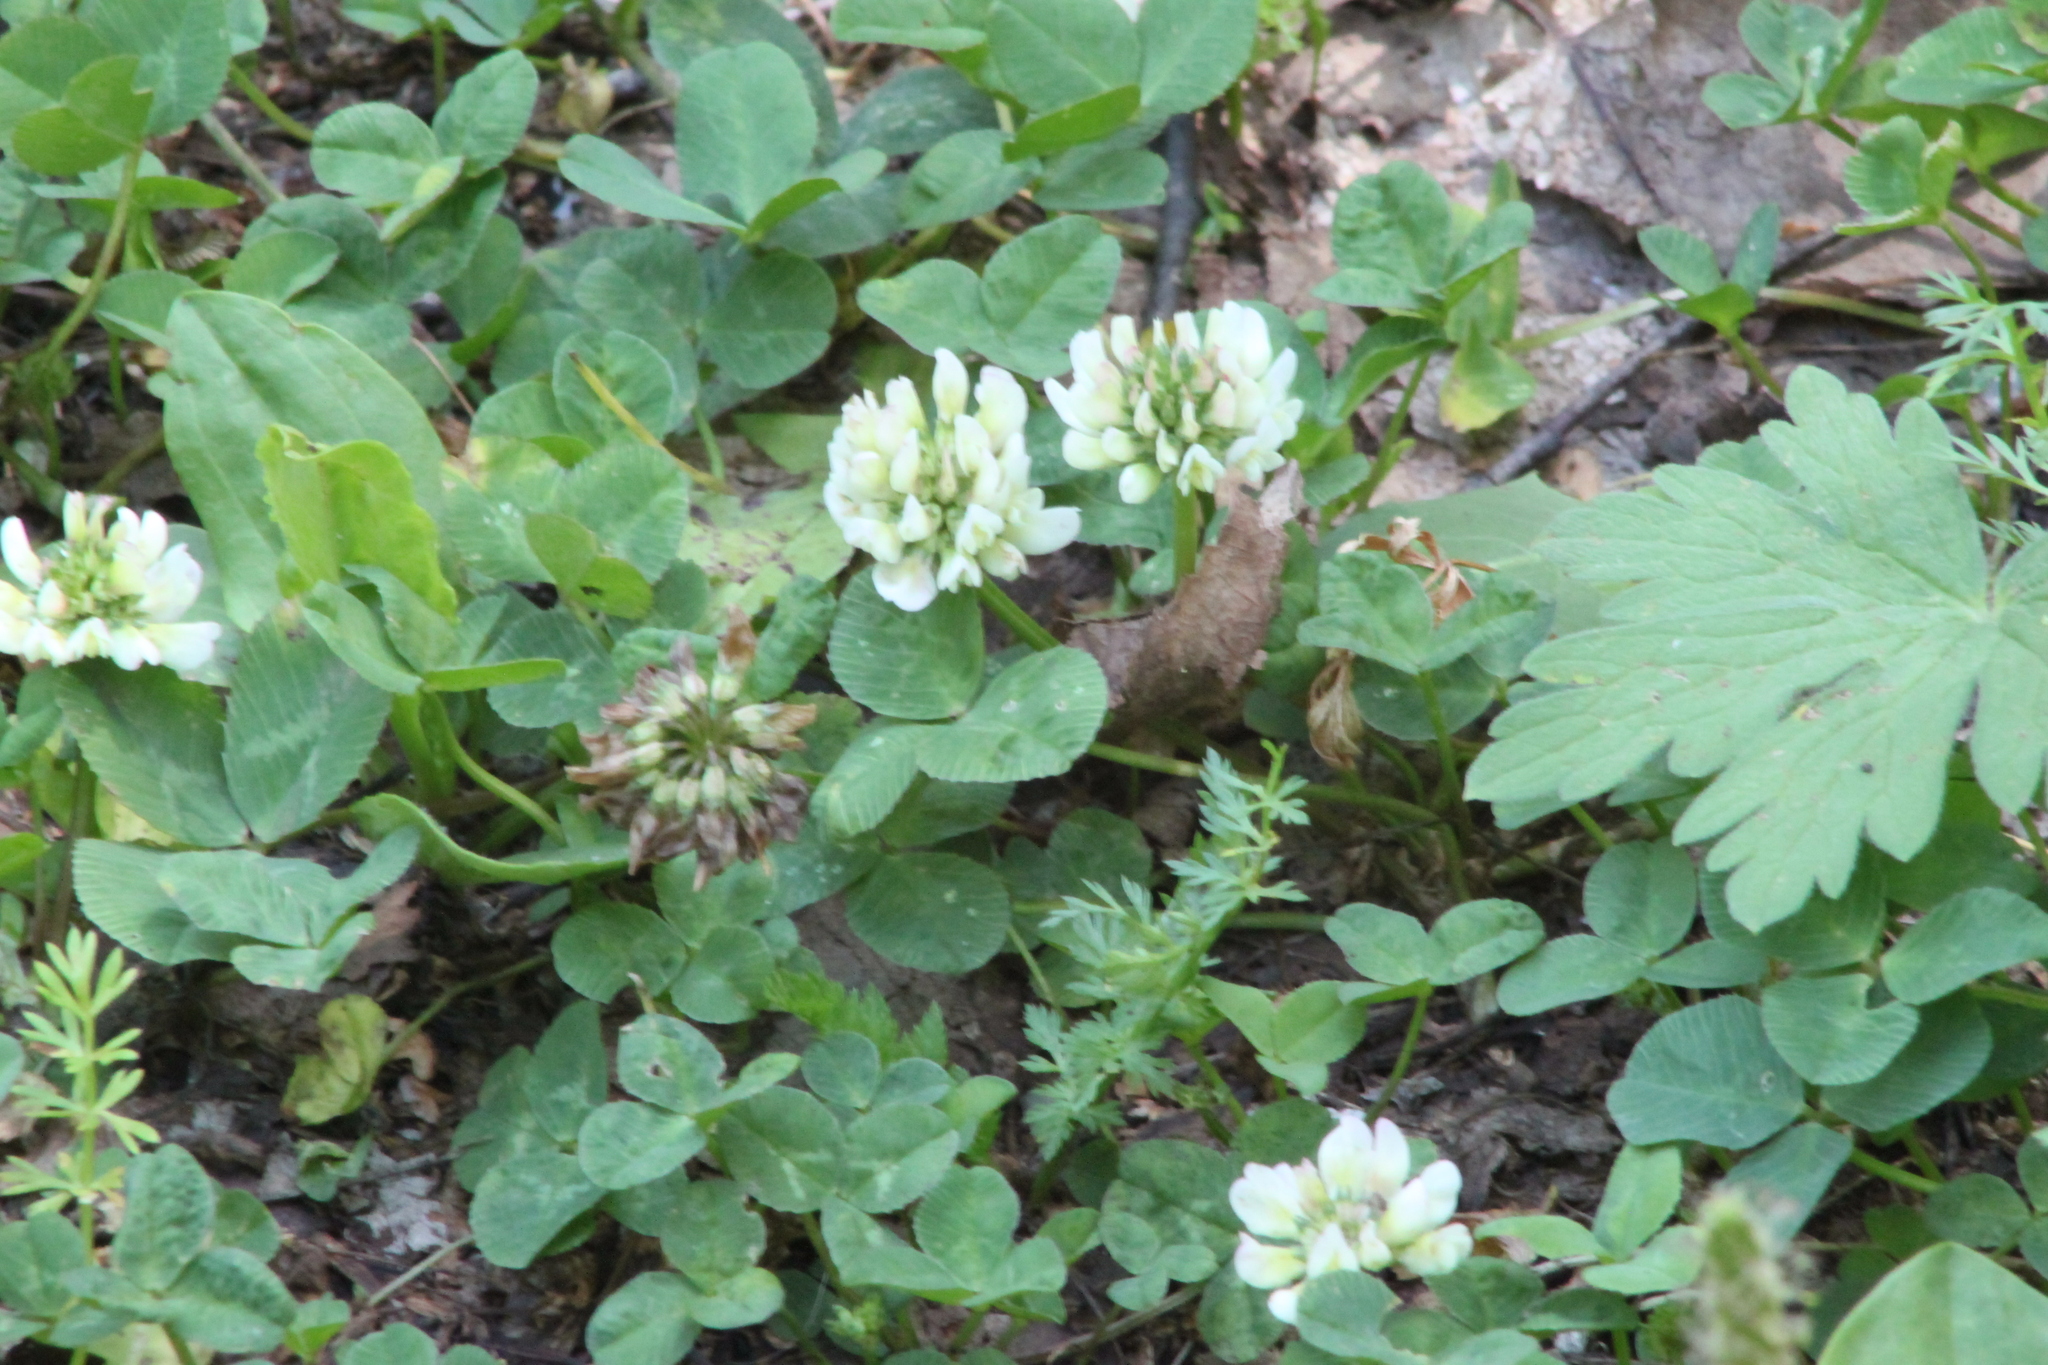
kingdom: Plantae
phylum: Tracheophyta
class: Magnoliopsida
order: Fabales
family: Fabaceae
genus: Trifolium
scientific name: Trifolium repens
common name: White clover
